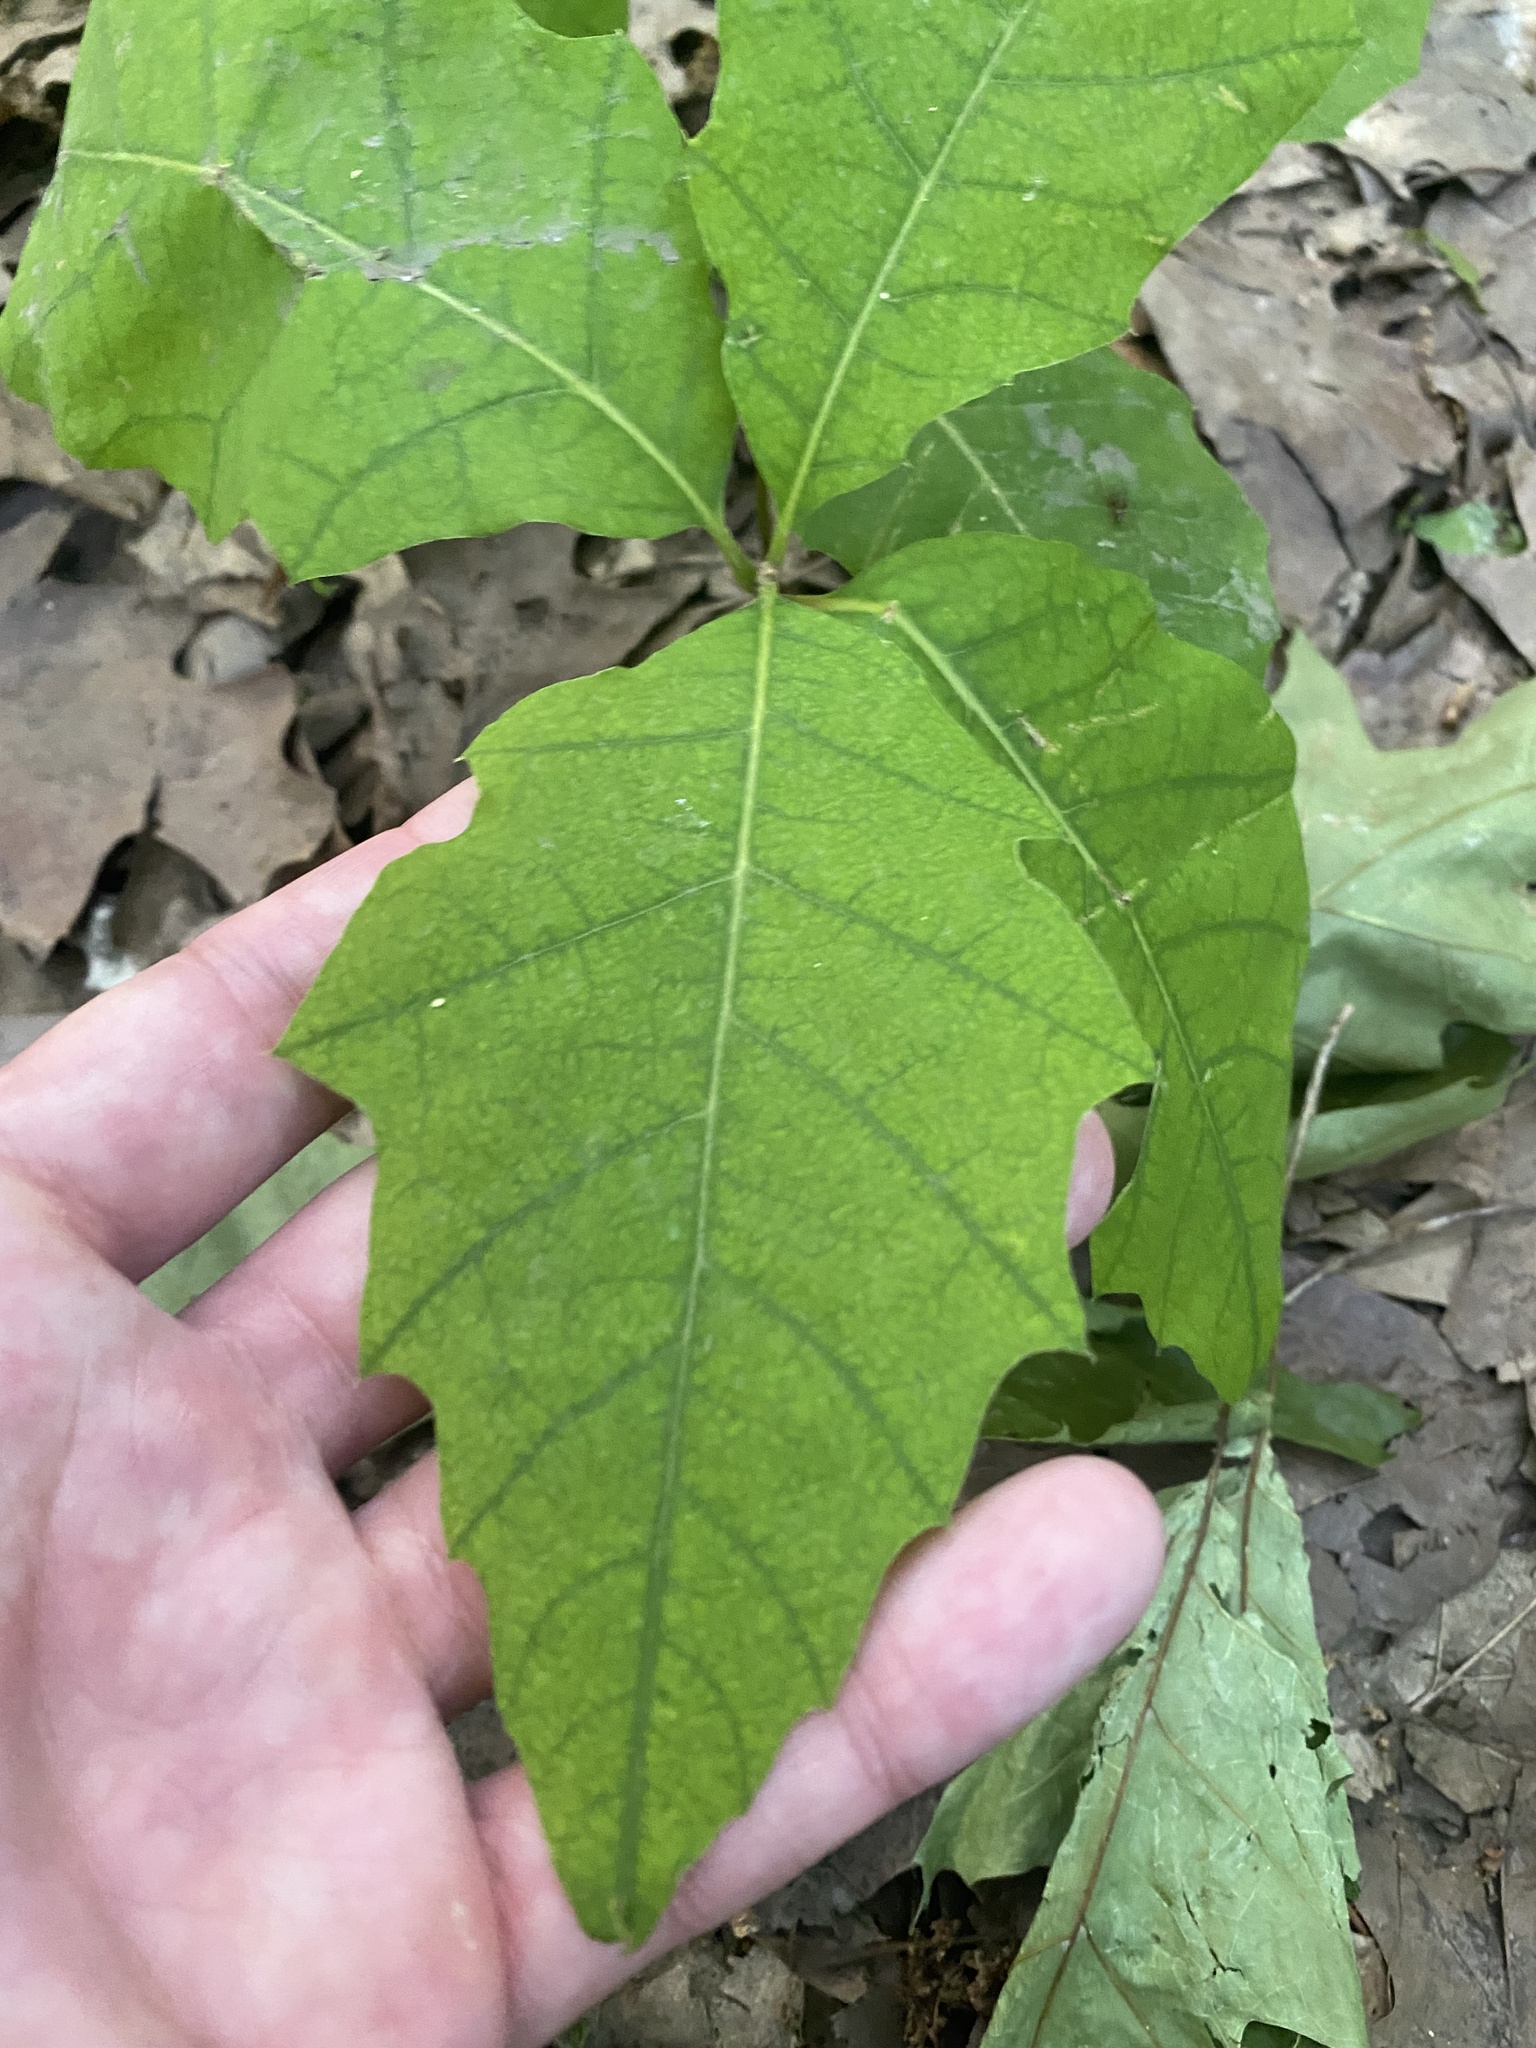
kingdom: Plantae
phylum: Tracheophyta
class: Magnoliopsida
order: Fagales
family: Fagaceae
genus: Quercus
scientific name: Quercus rubra
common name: Red oak
